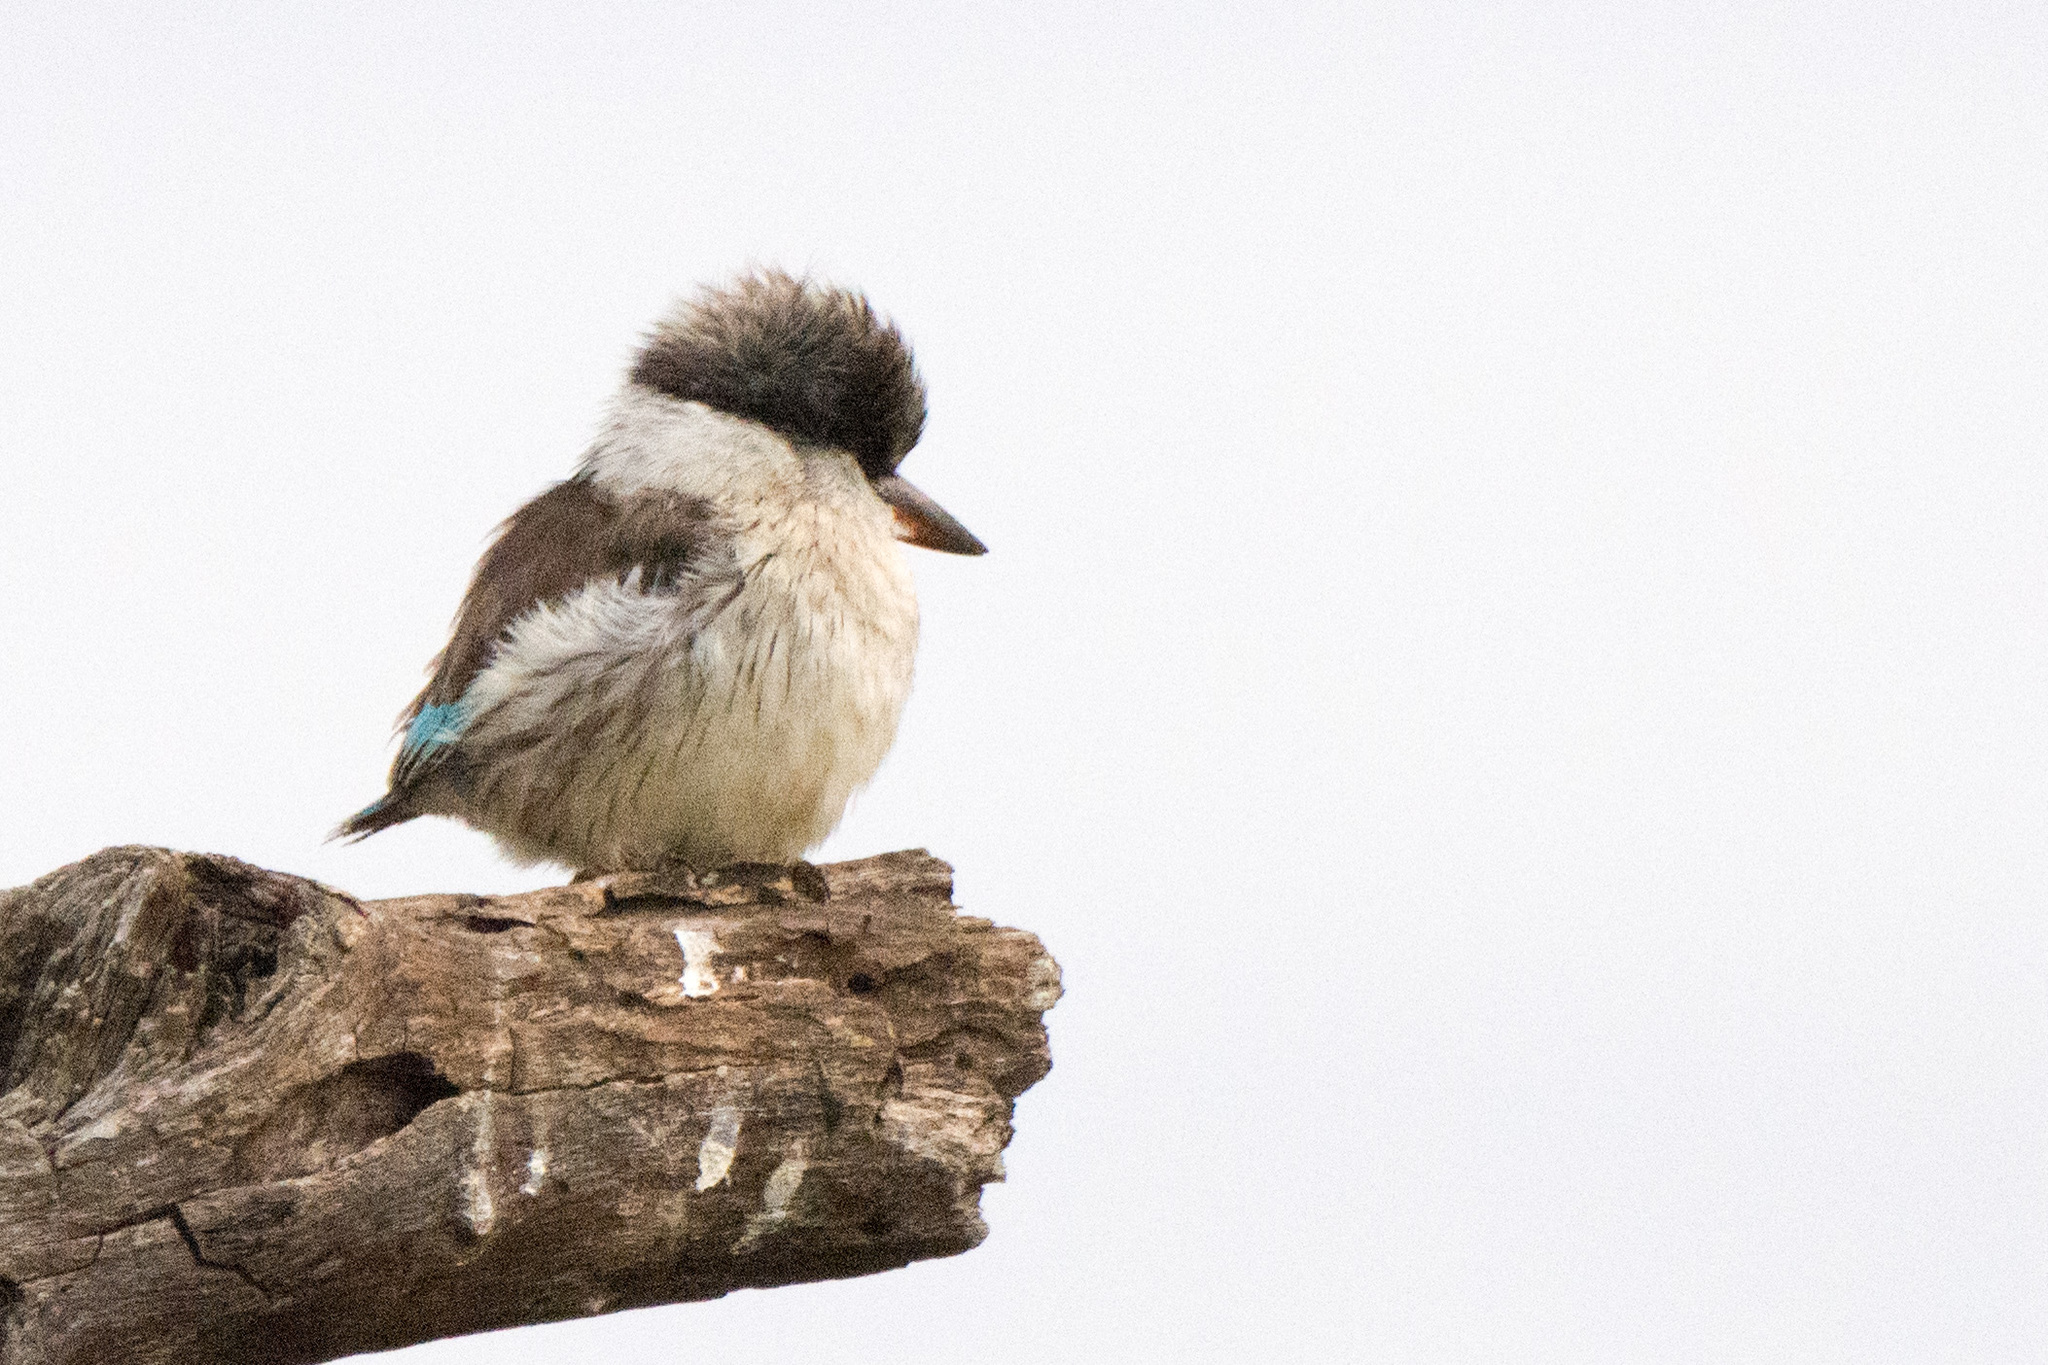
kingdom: Animalia
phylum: Chordata
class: Aves
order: Coraciiformes
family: Alcedinidae
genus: Halcyon
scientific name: Halcyon chelicuti
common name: Striped kingfisher
